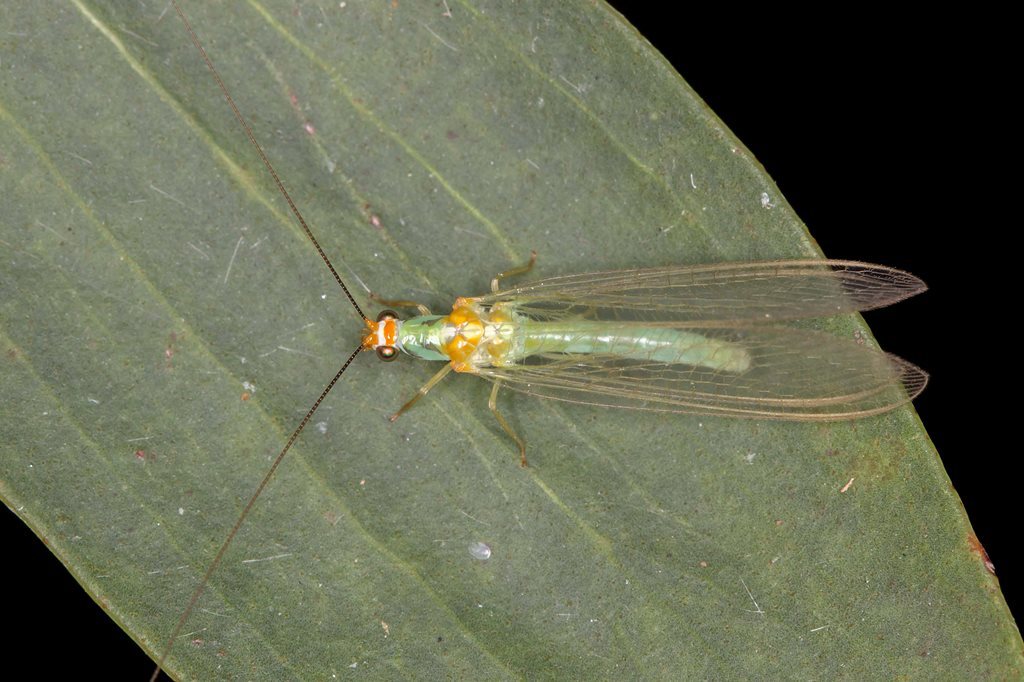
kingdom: Animalia
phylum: Arthropoda
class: Insecta
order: Neuroptera
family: Chrysopidae
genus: Plesiochrysa
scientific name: Plesiochrysa atalotis
